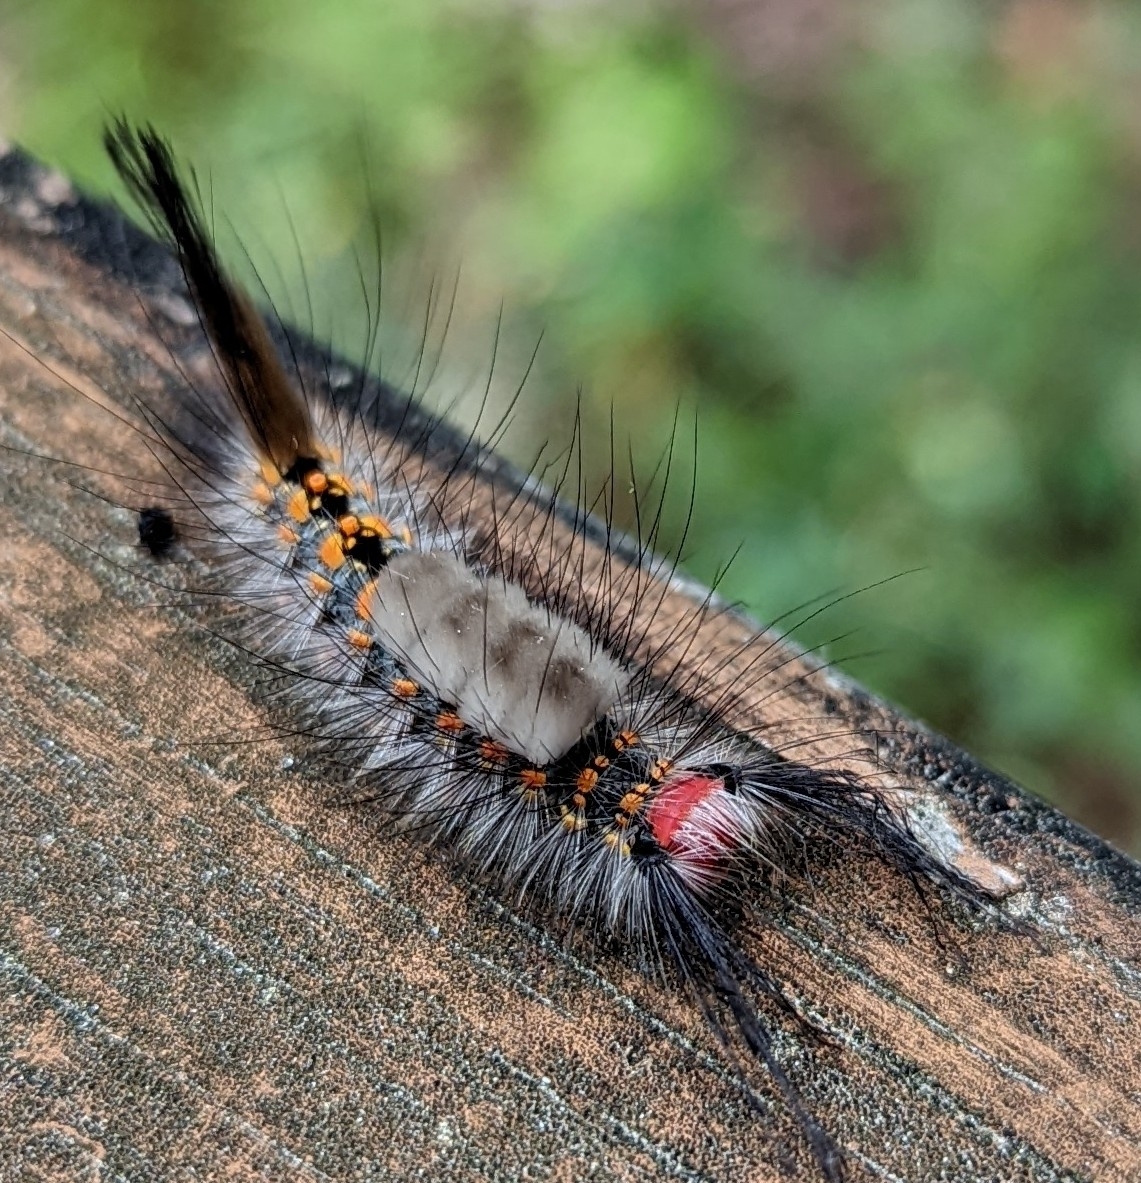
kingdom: Animalia
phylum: Arthropoda
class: Insecta
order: Lepidoptera
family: Erebidae
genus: Orgyia
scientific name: Orgyia detrita
